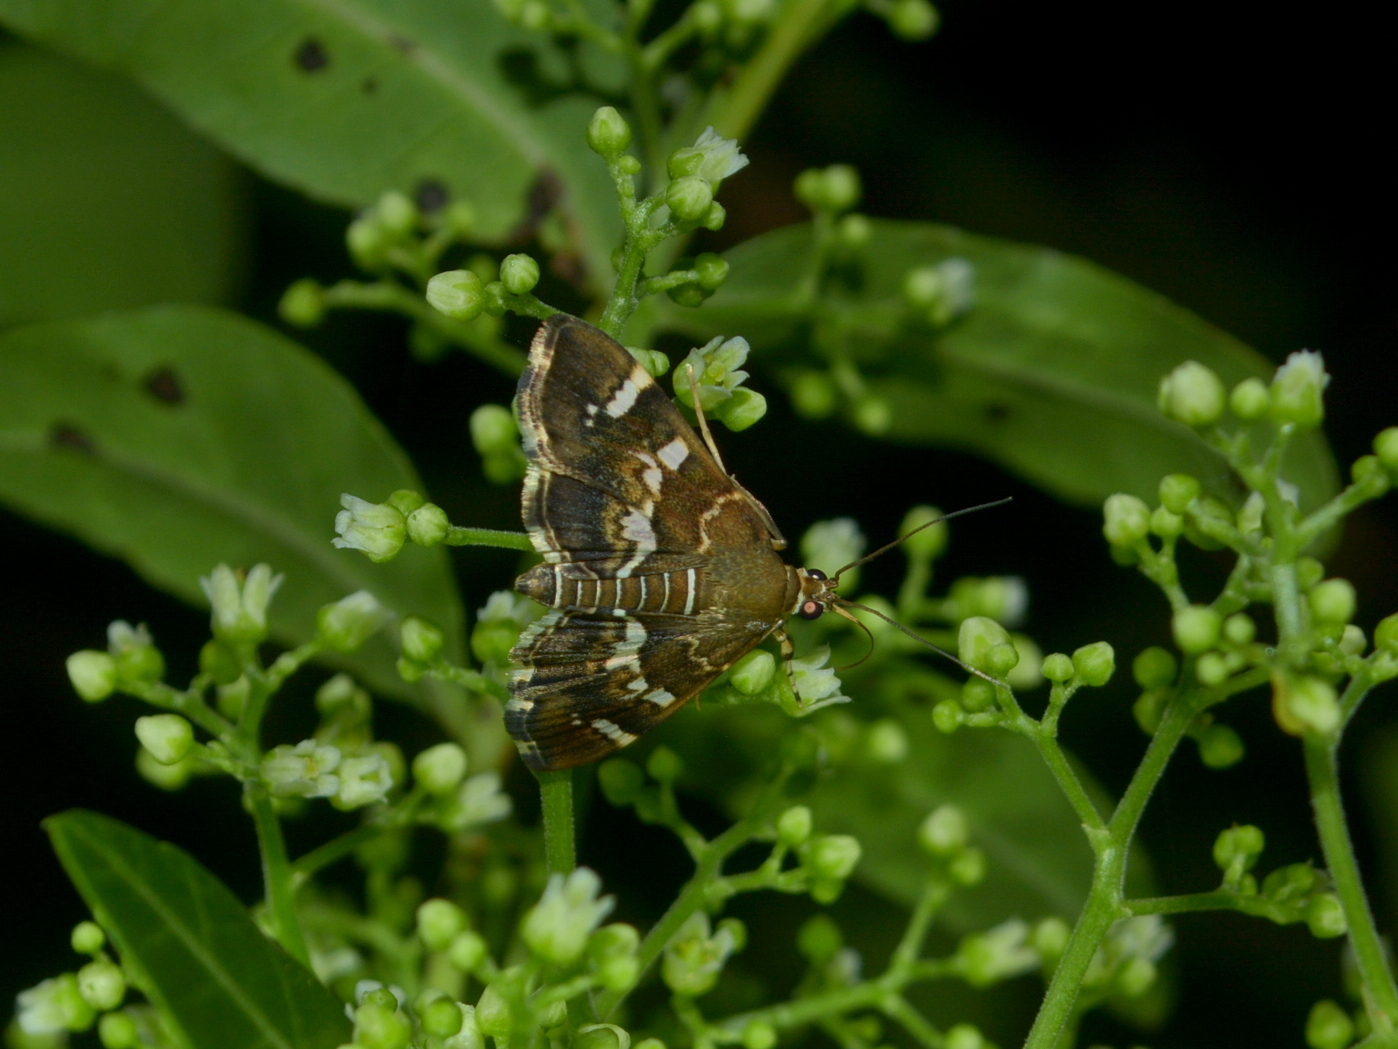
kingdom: Animalia
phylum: Arthropoda
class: Insecta
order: Lepidoptera
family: Crambidae
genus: Hymenia
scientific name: Hymenia perspectalis
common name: Spotted beet webworm
